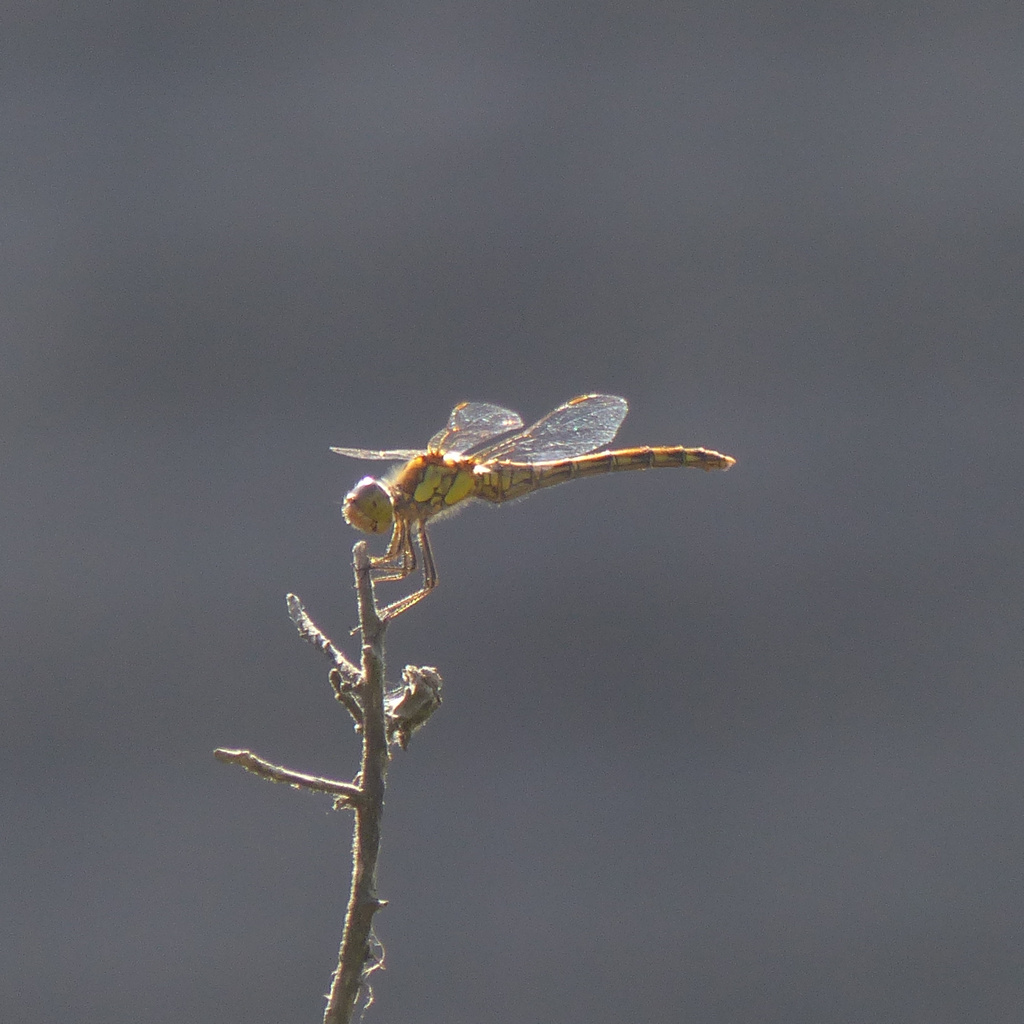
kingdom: Animalia
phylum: Arthropoda
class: Insecta
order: Odonata
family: Libellulidae
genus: Sympetrum
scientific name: Sympetrum striolatum
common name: Common darter
